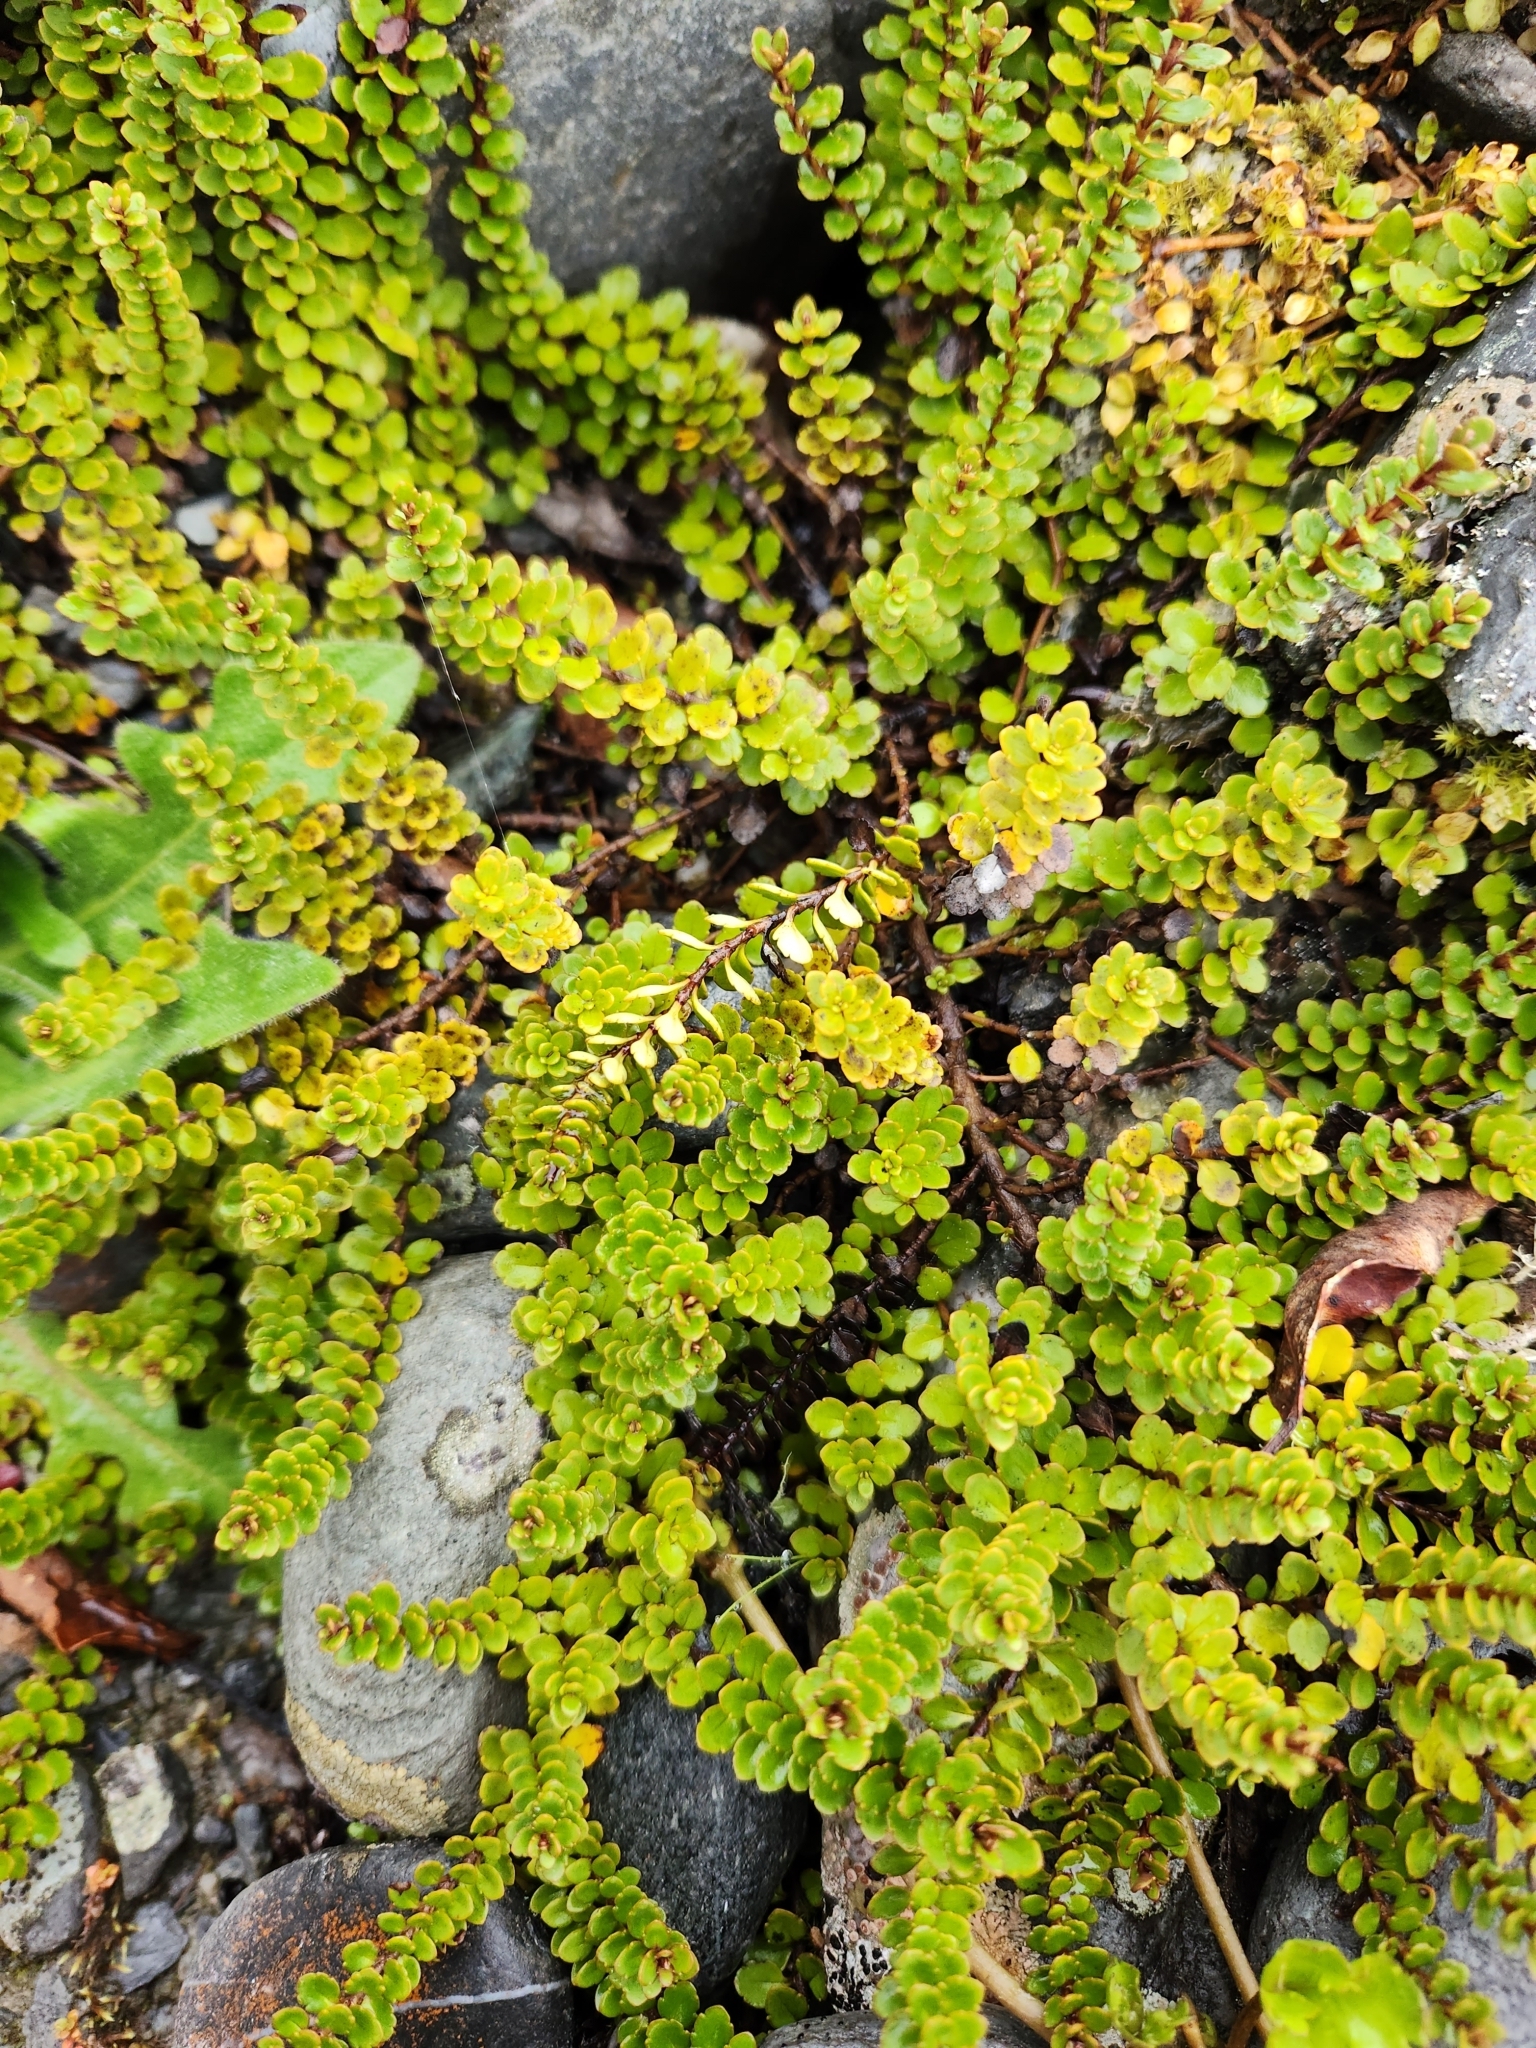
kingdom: Plantae
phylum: Tracheophyta
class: Magnoliopsida
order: Lamiales
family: Plantaginaceae
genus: Veronica
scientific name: Veronica lyallii
